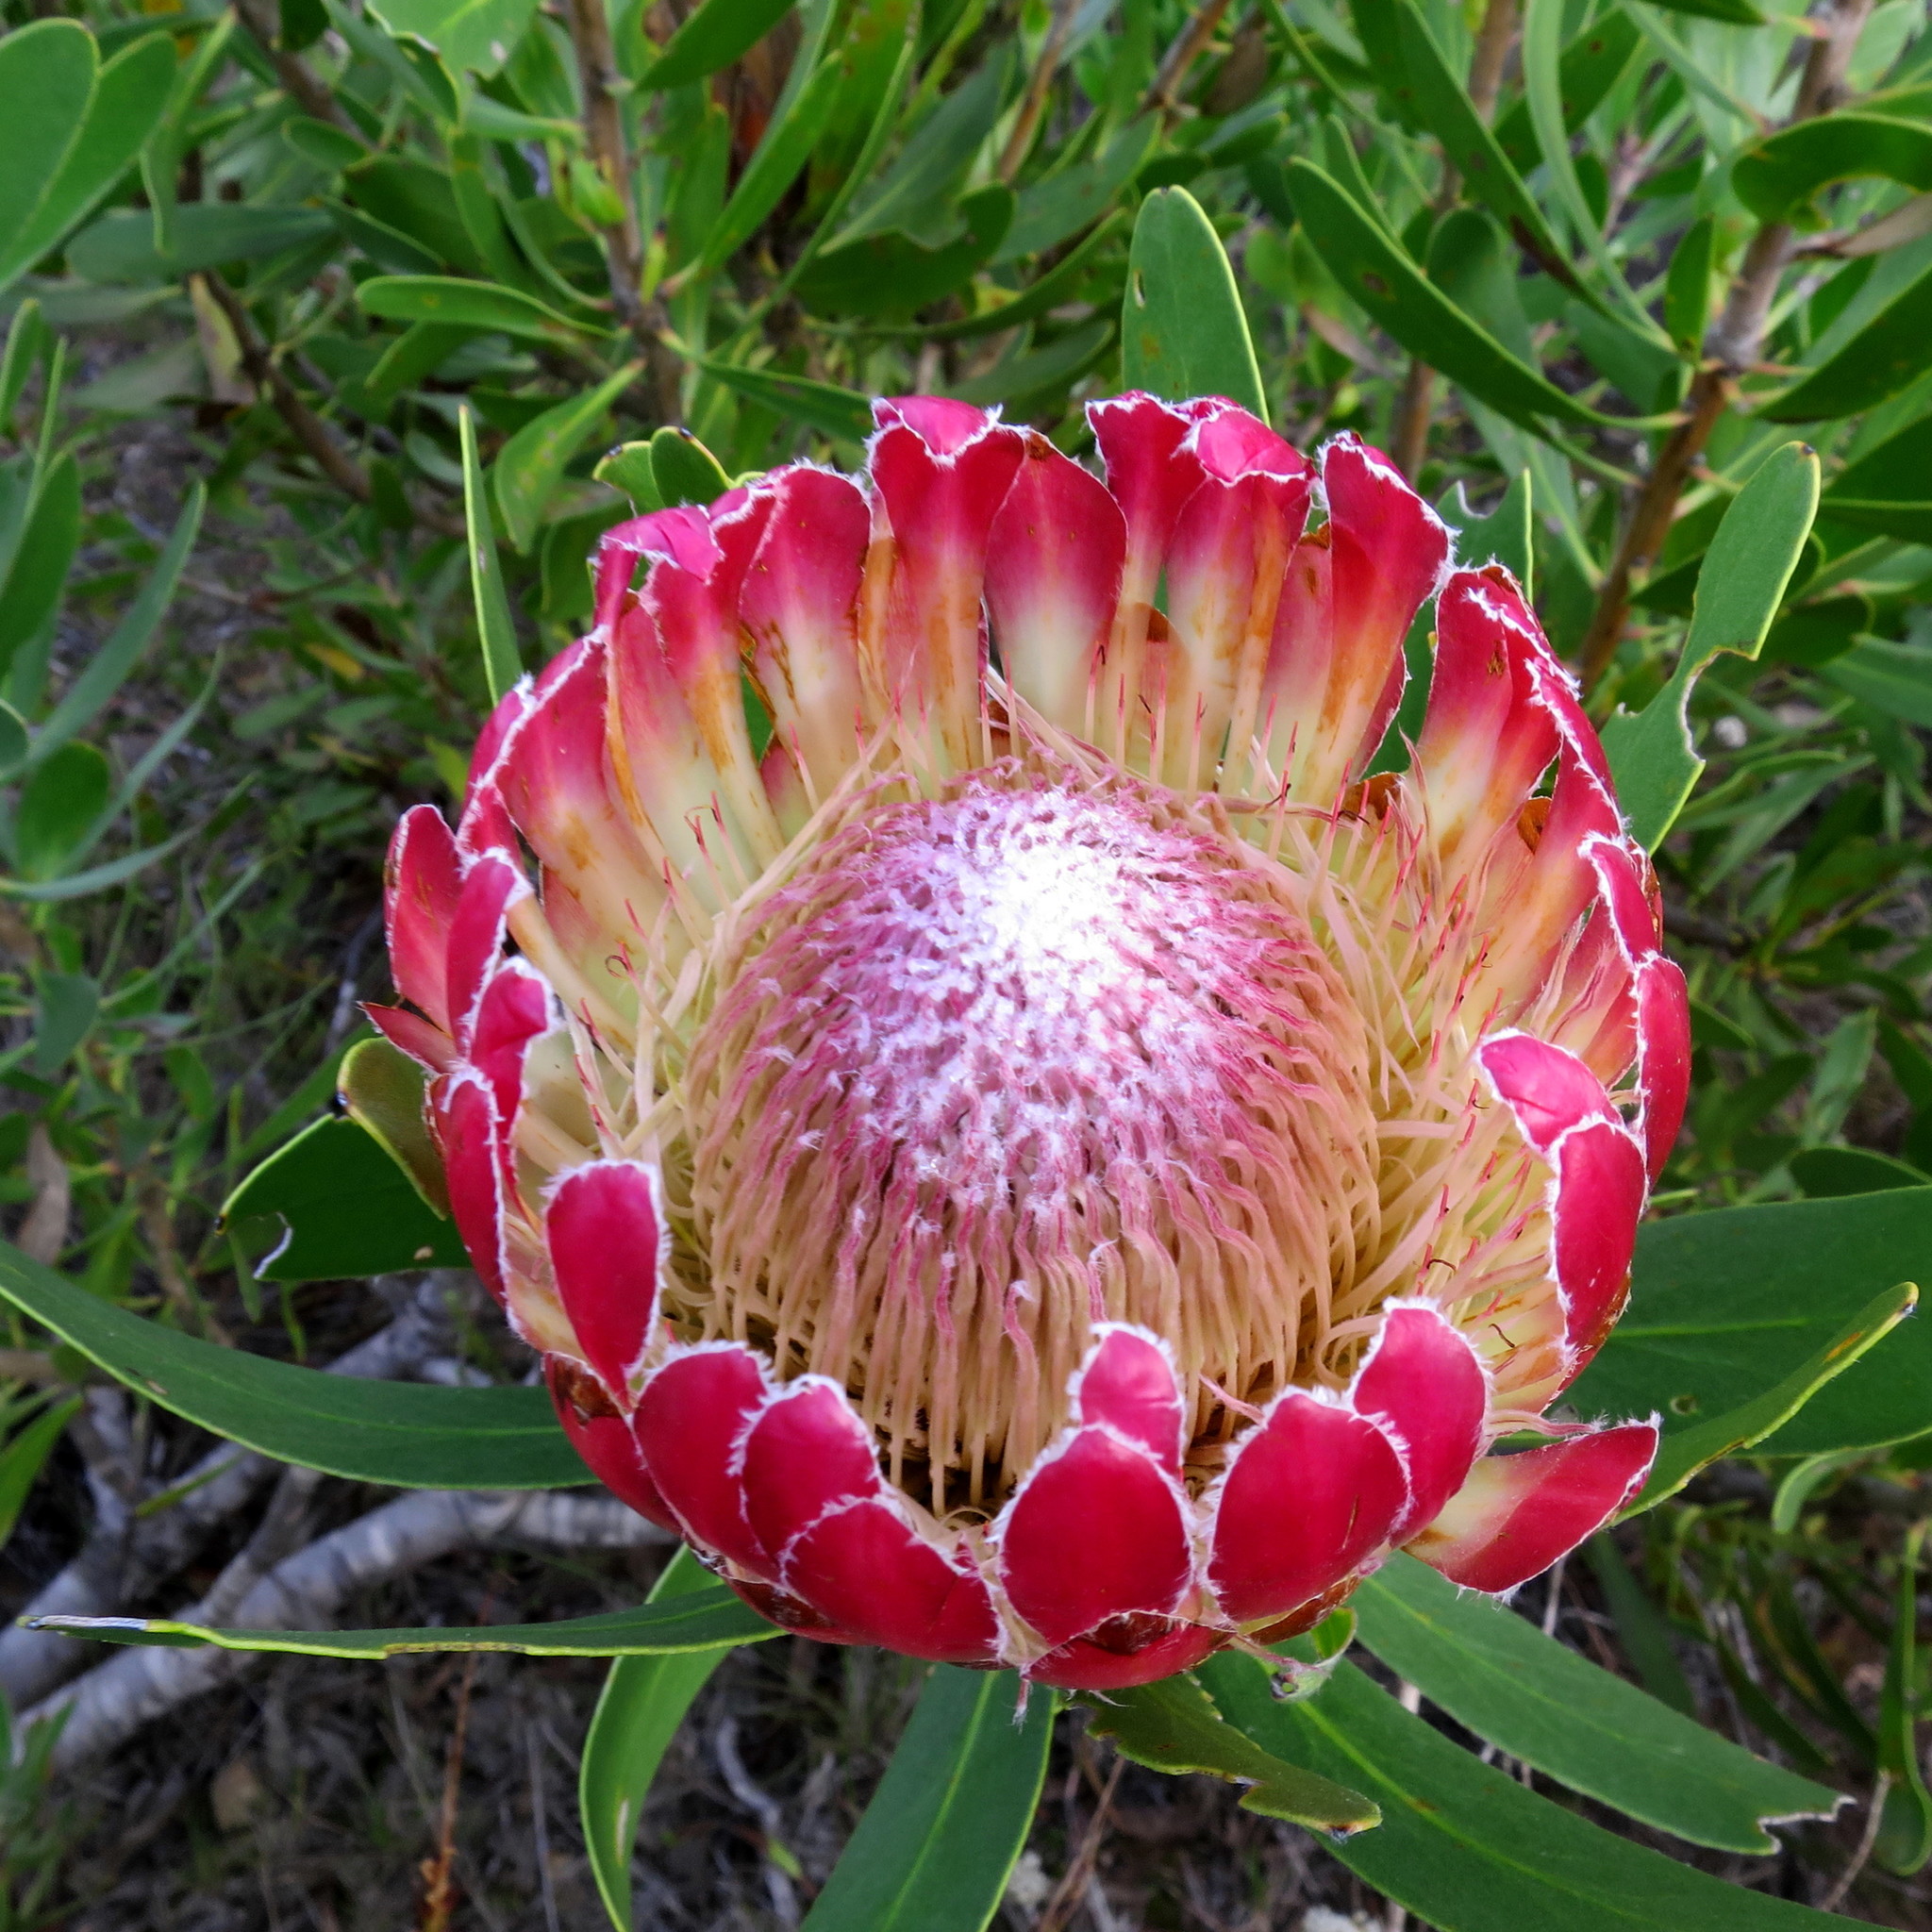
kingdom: Plantae
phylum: Tracheophyta
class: Magnoliopsida
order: Proteales
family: Proteaceae
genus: Protea
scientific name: Protea obtusifolia
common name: Bredasdorp sugarbush
